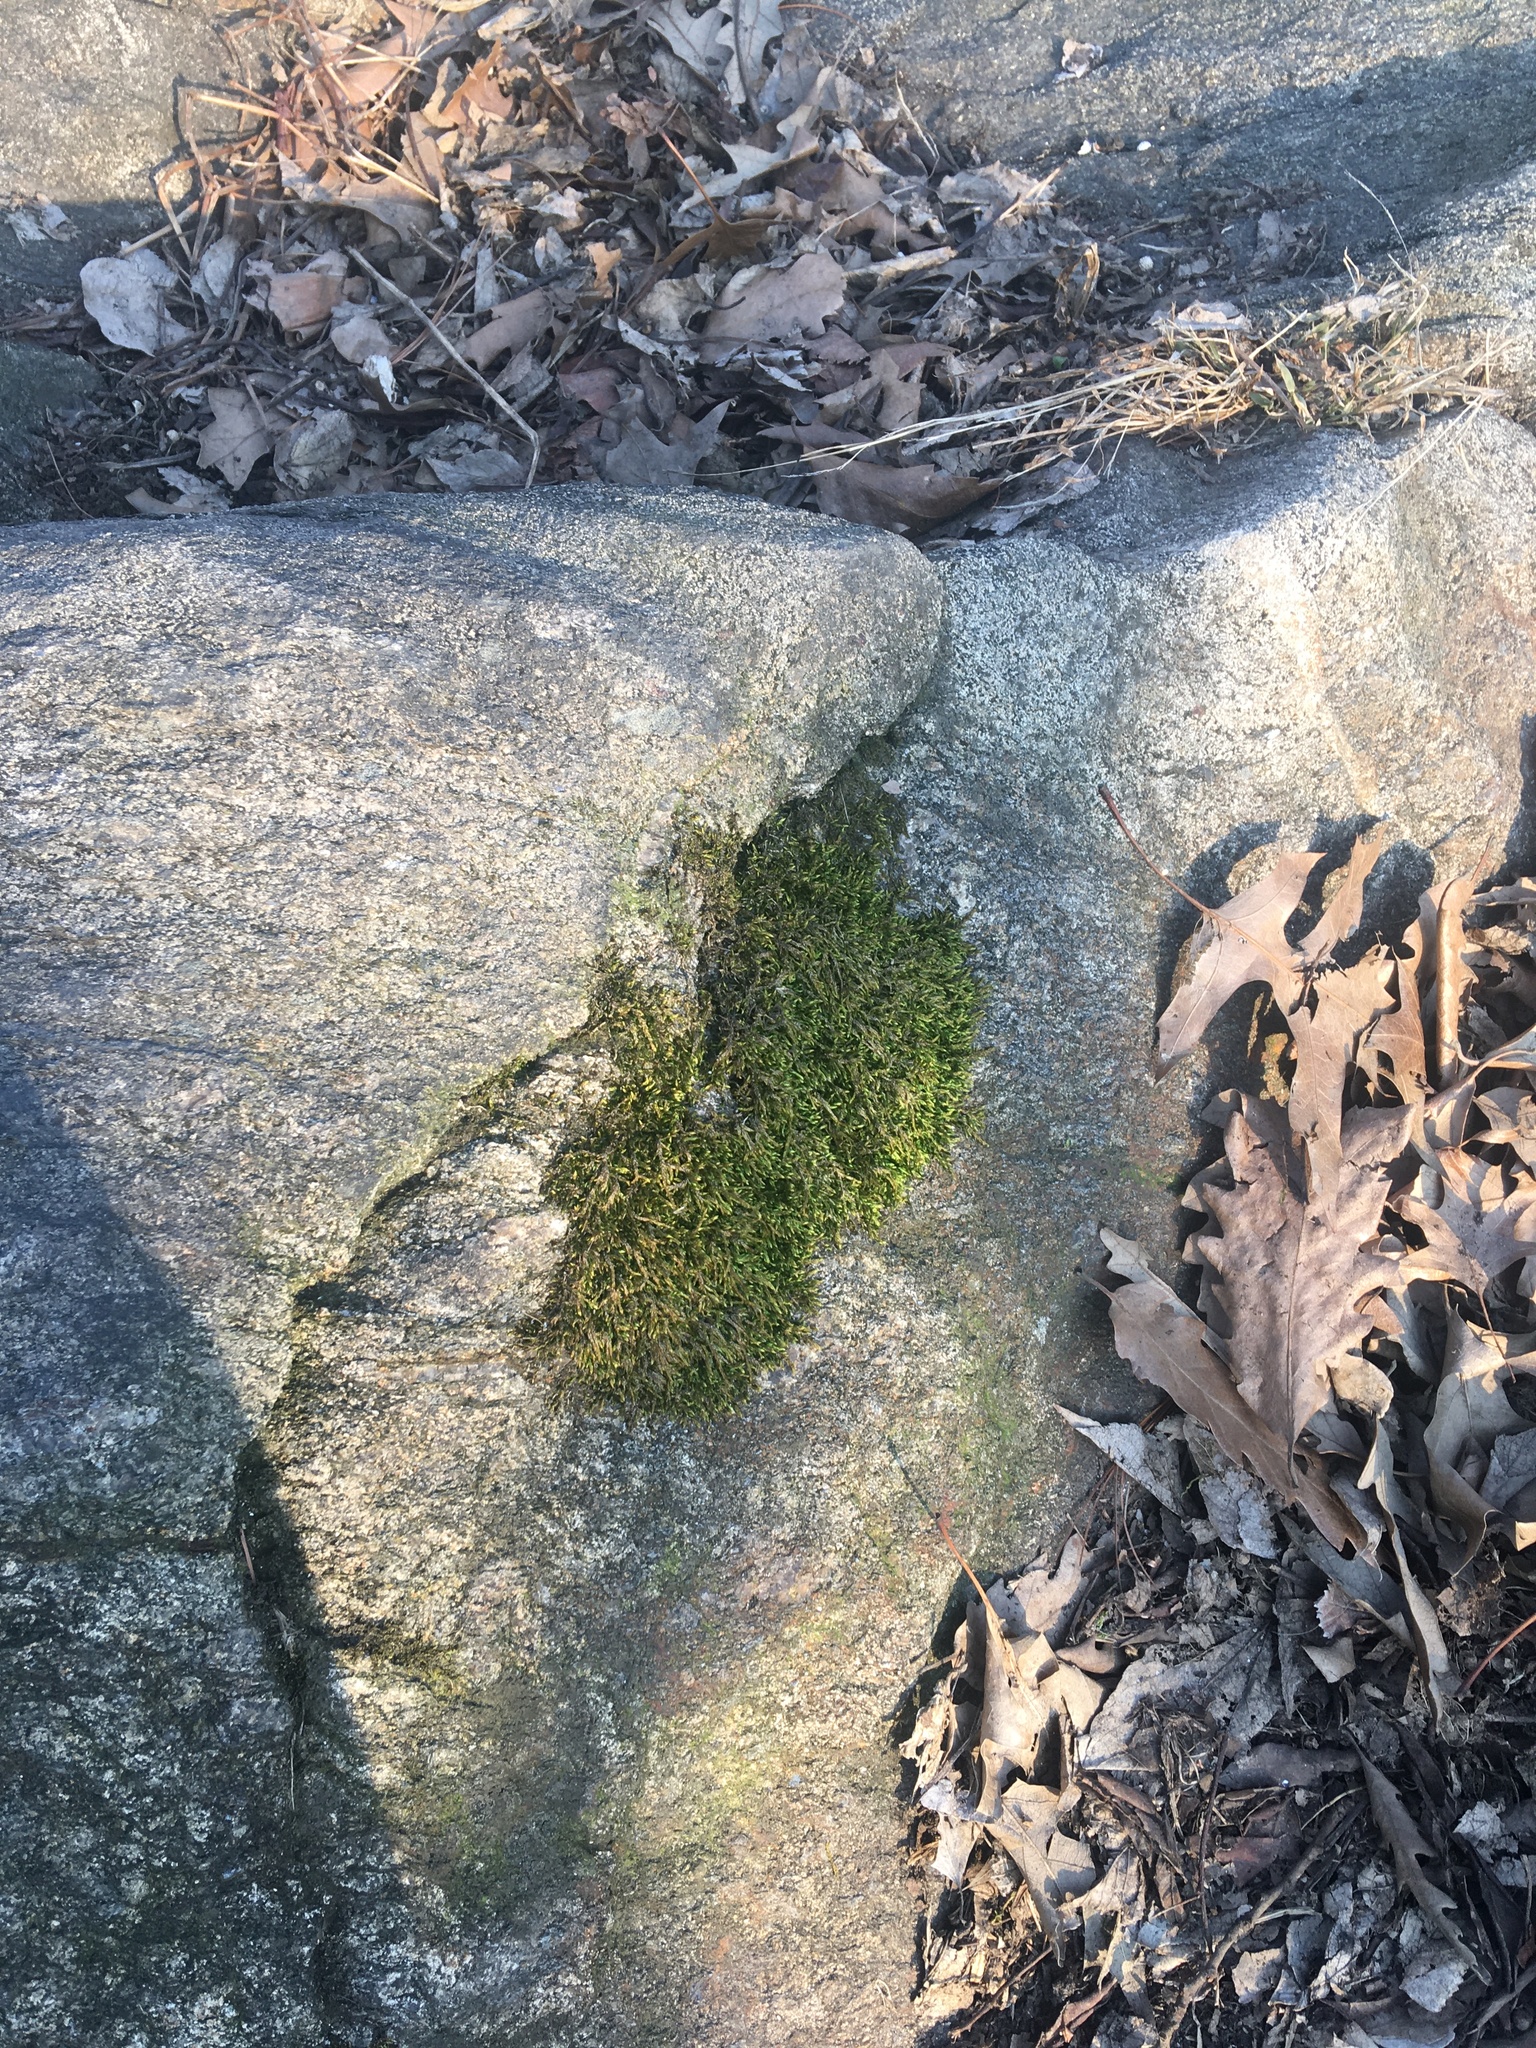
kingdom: Plantae
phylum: Bryophyta
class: Bryopsida
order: Hypnales
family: Entodontaceae
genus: Entodon
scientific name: Entodon seductrix
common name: Round-stemmed entodon moss
